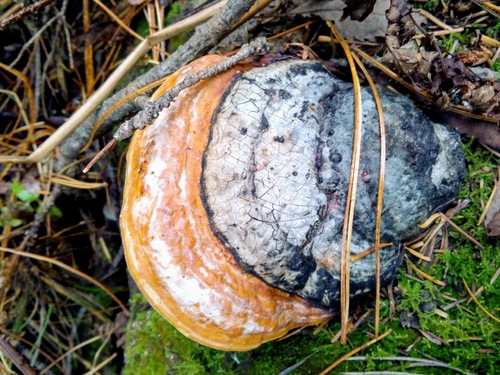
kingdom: Fungi
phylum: Basidiomycota
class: Agaricomycetes
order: Polyporales
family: Fomitopsidaceae
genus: Fomitopsis
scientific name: Fomitopsis pinicola
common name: Red-belted bracket
